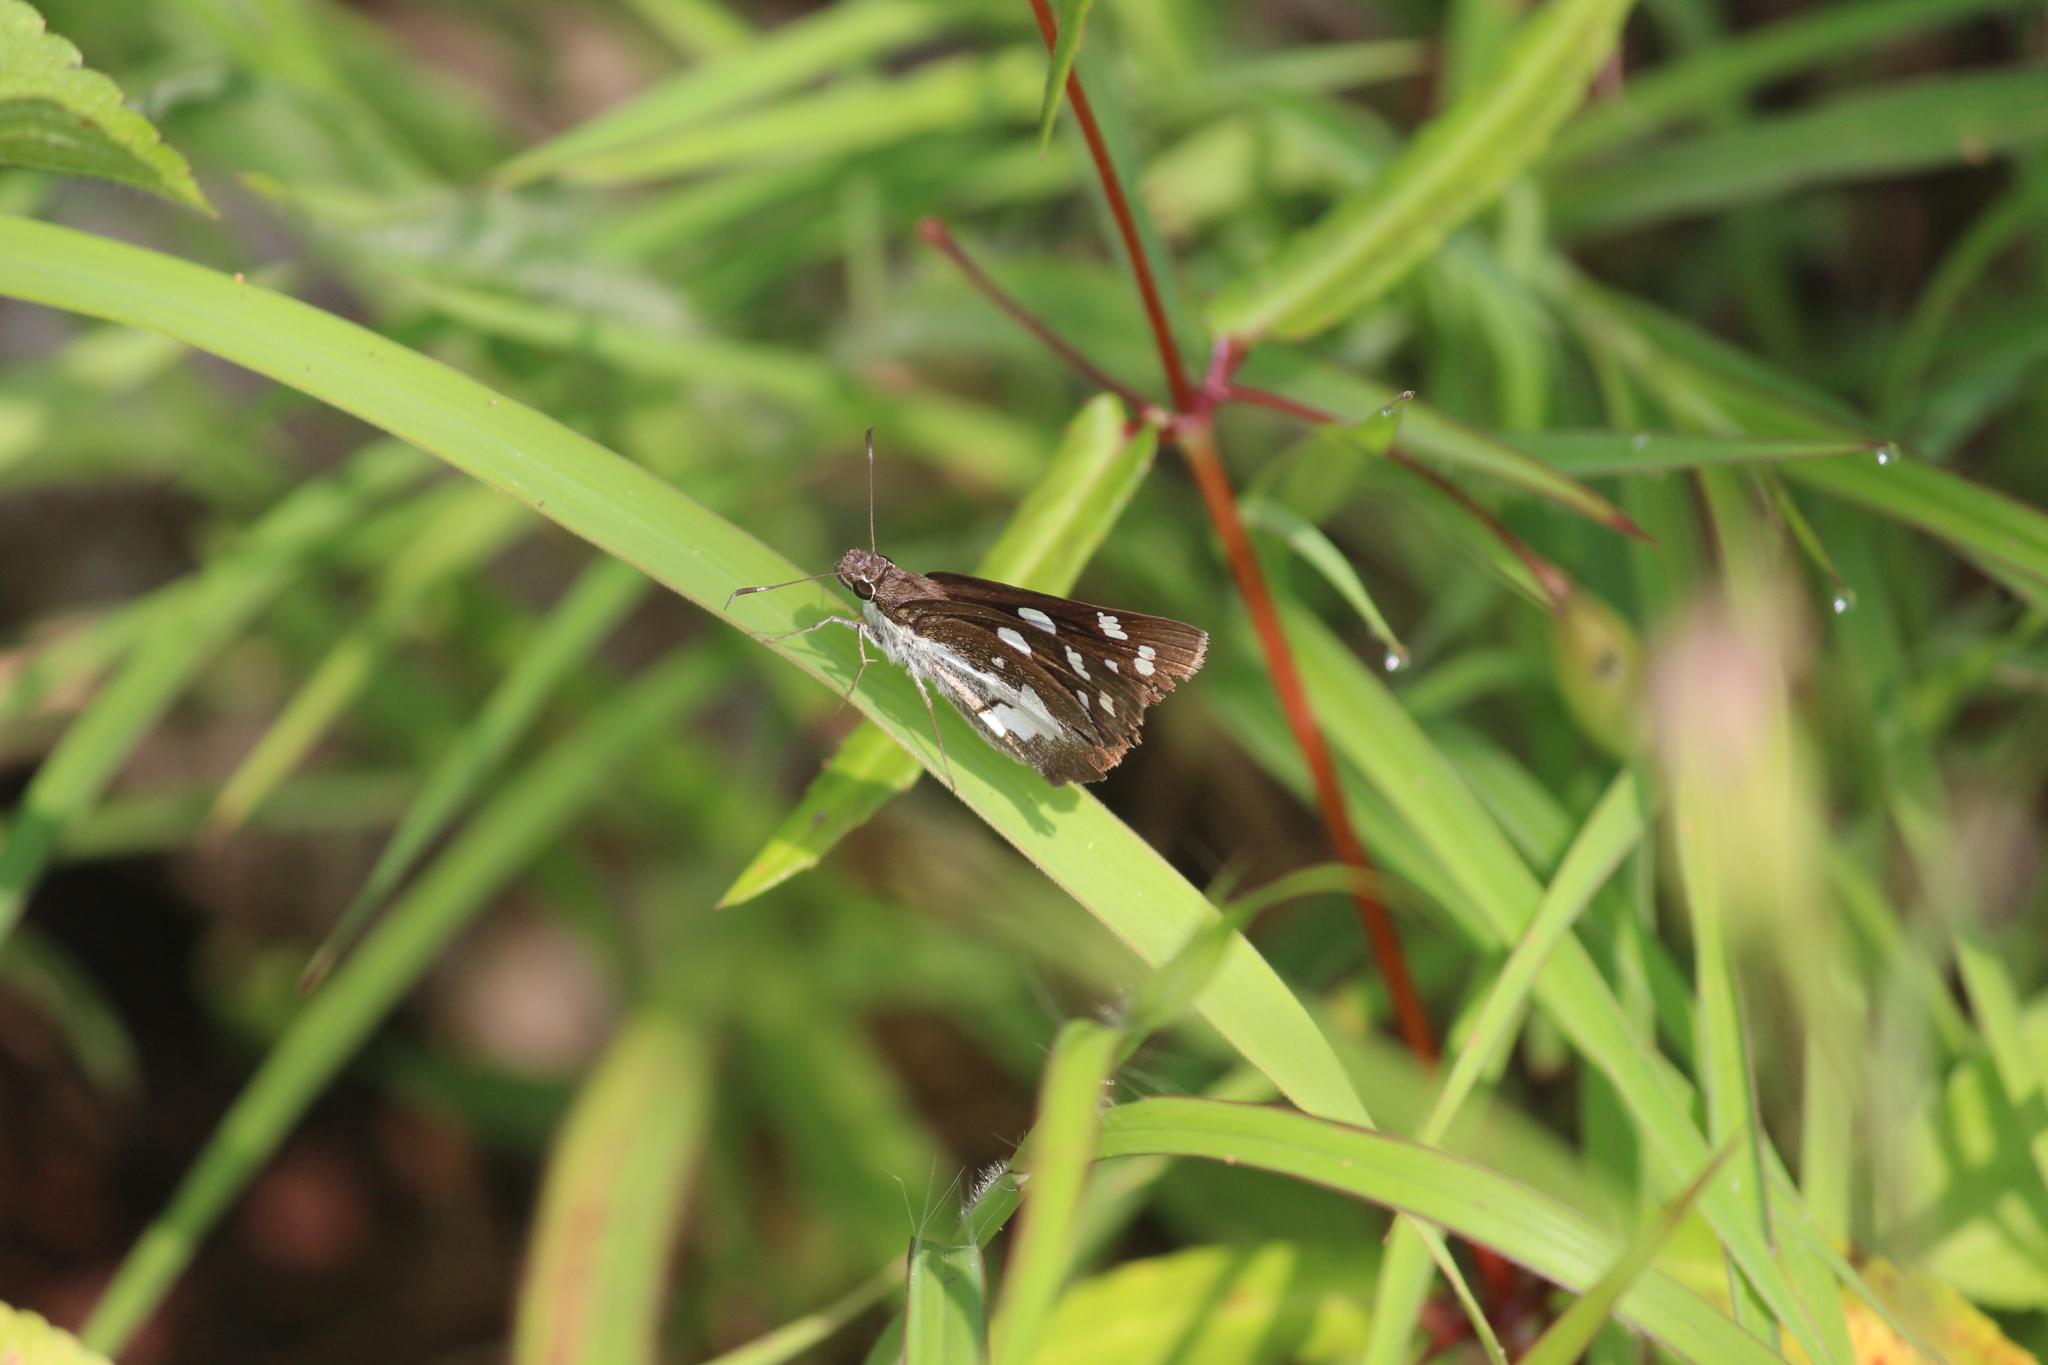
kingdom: Animalia
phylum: Arthropoda
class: Insecta
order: Lepidoptera
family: Hesperiidae
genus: Udaspes
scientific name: Udaspes folus
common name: Grass demon
